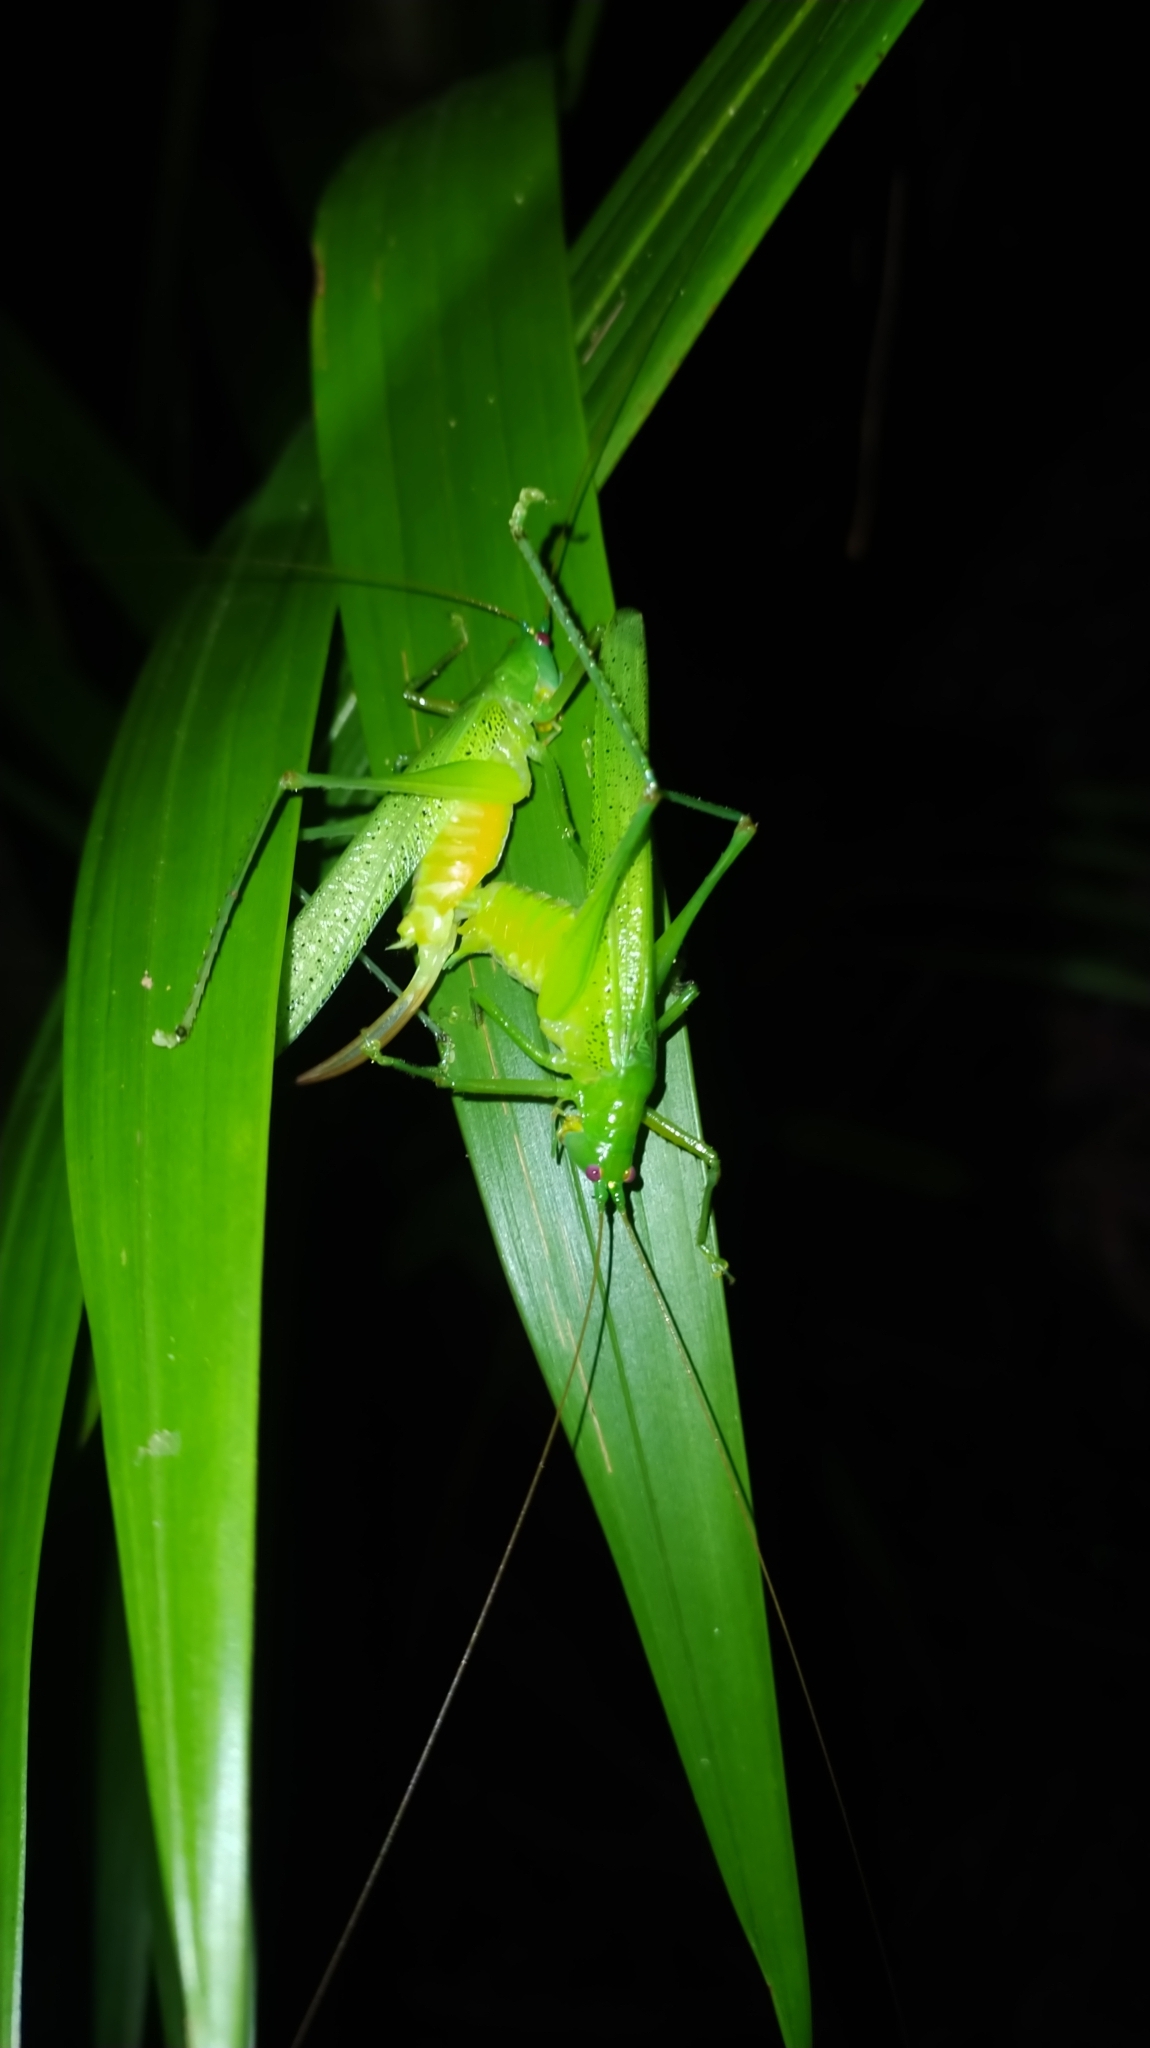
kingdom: Animalia
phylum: Arthropoda
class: Insecta
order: Orthoptera
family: Tettigoniidae
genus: Redtenbachus
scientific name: Redtenbachus viridipennis
